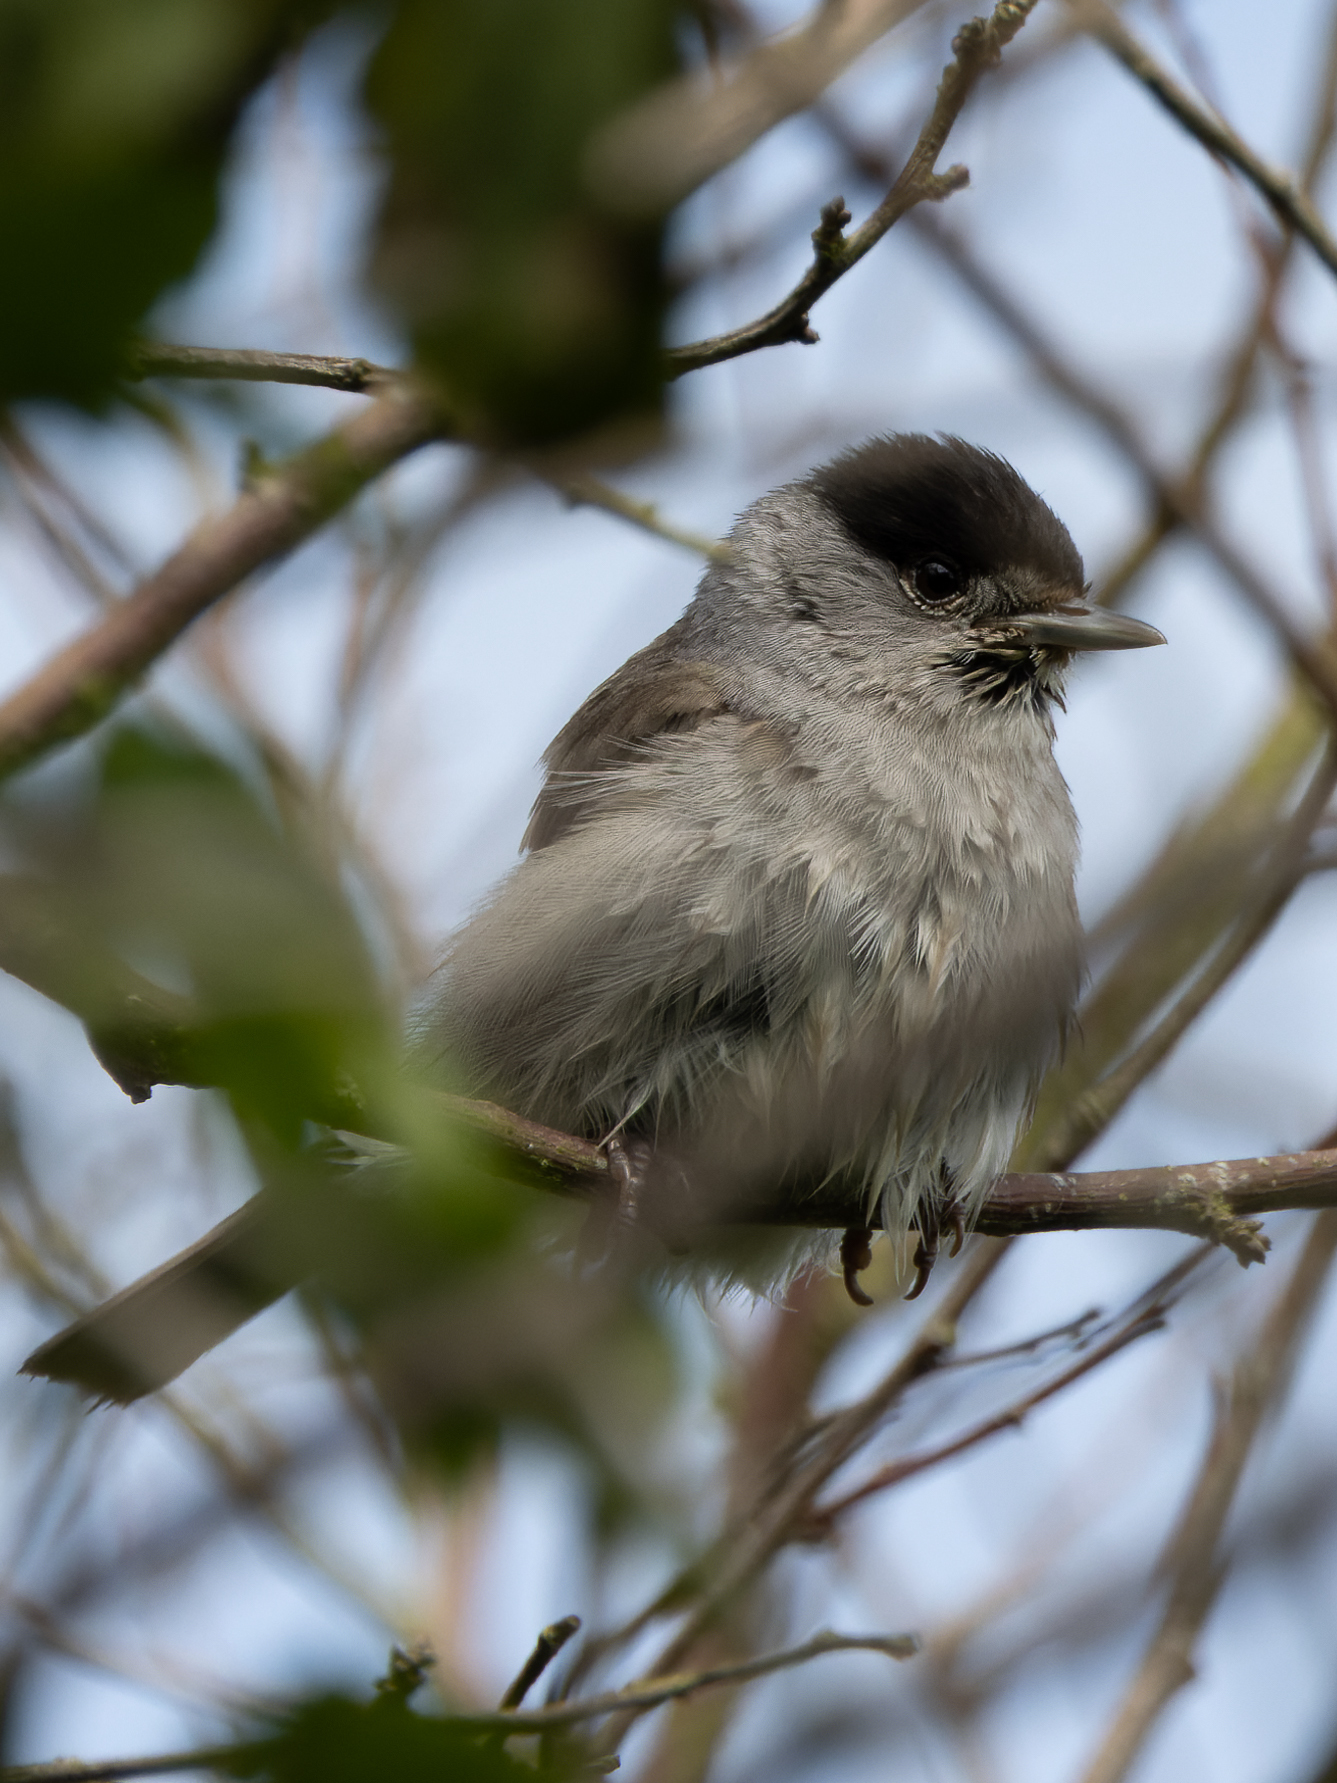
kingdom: Animalia
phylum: Chordata
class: Aves
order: Passeriformes
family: Sylviidae
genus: Sylvia
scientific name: Sylvia atricapilla
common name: Eurasian blackcap
